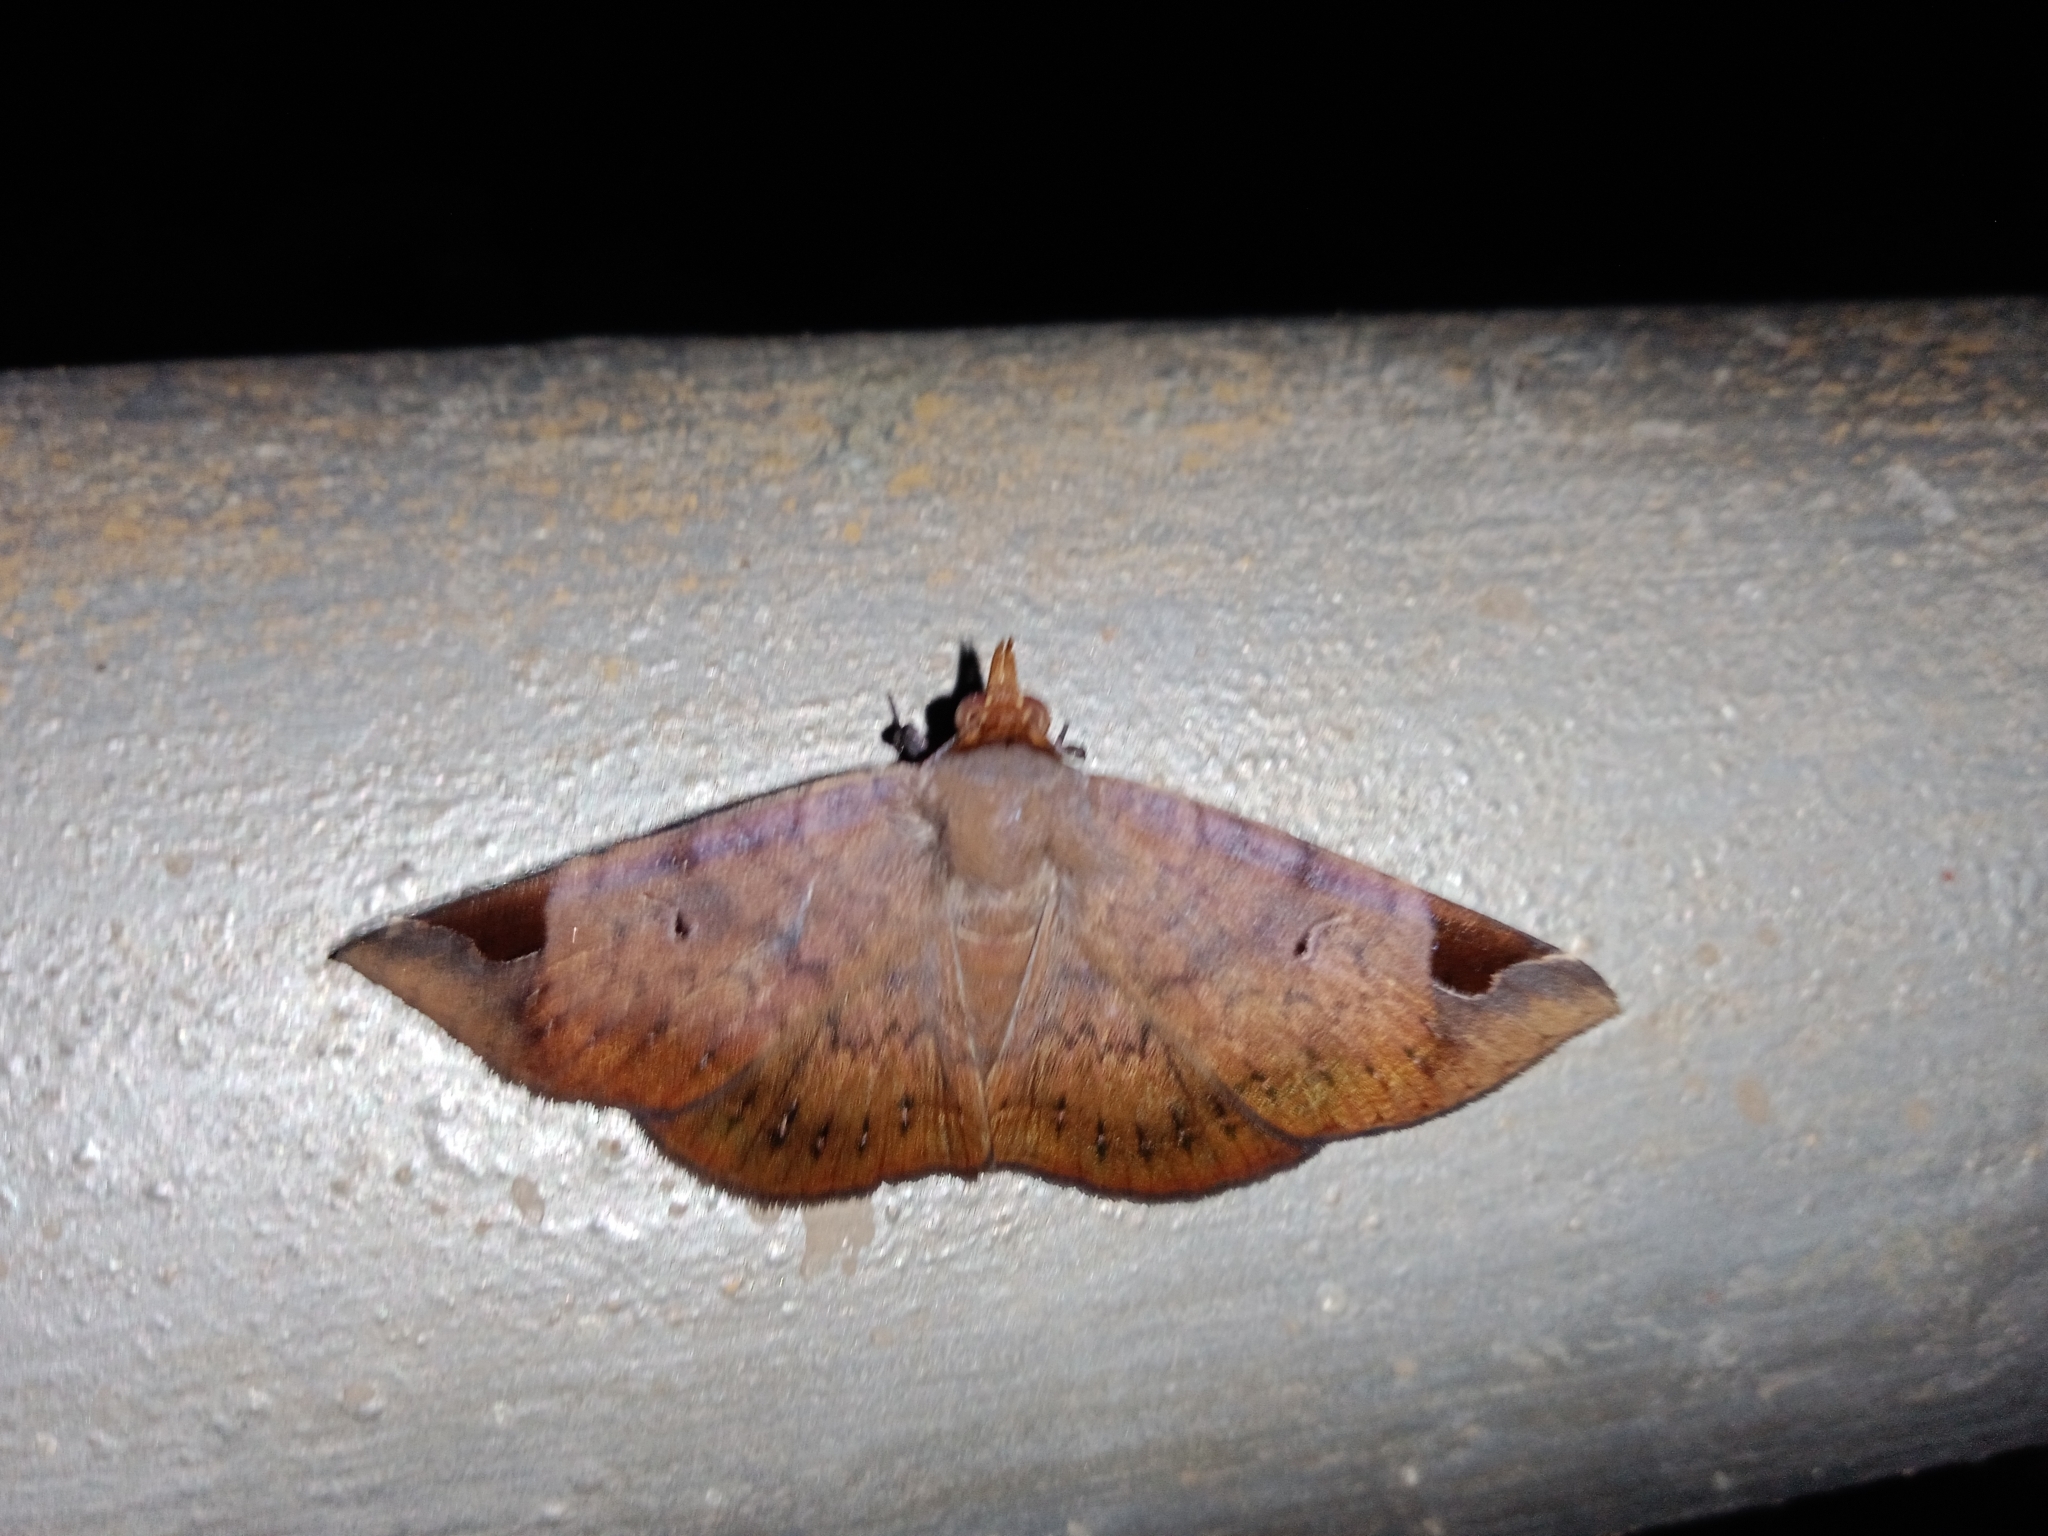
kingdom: Animalia
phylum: Arthropoda
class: Insecta
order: Lepidoptera
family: Erebidae
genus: Mecodina
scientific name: Mecodina praecipua
